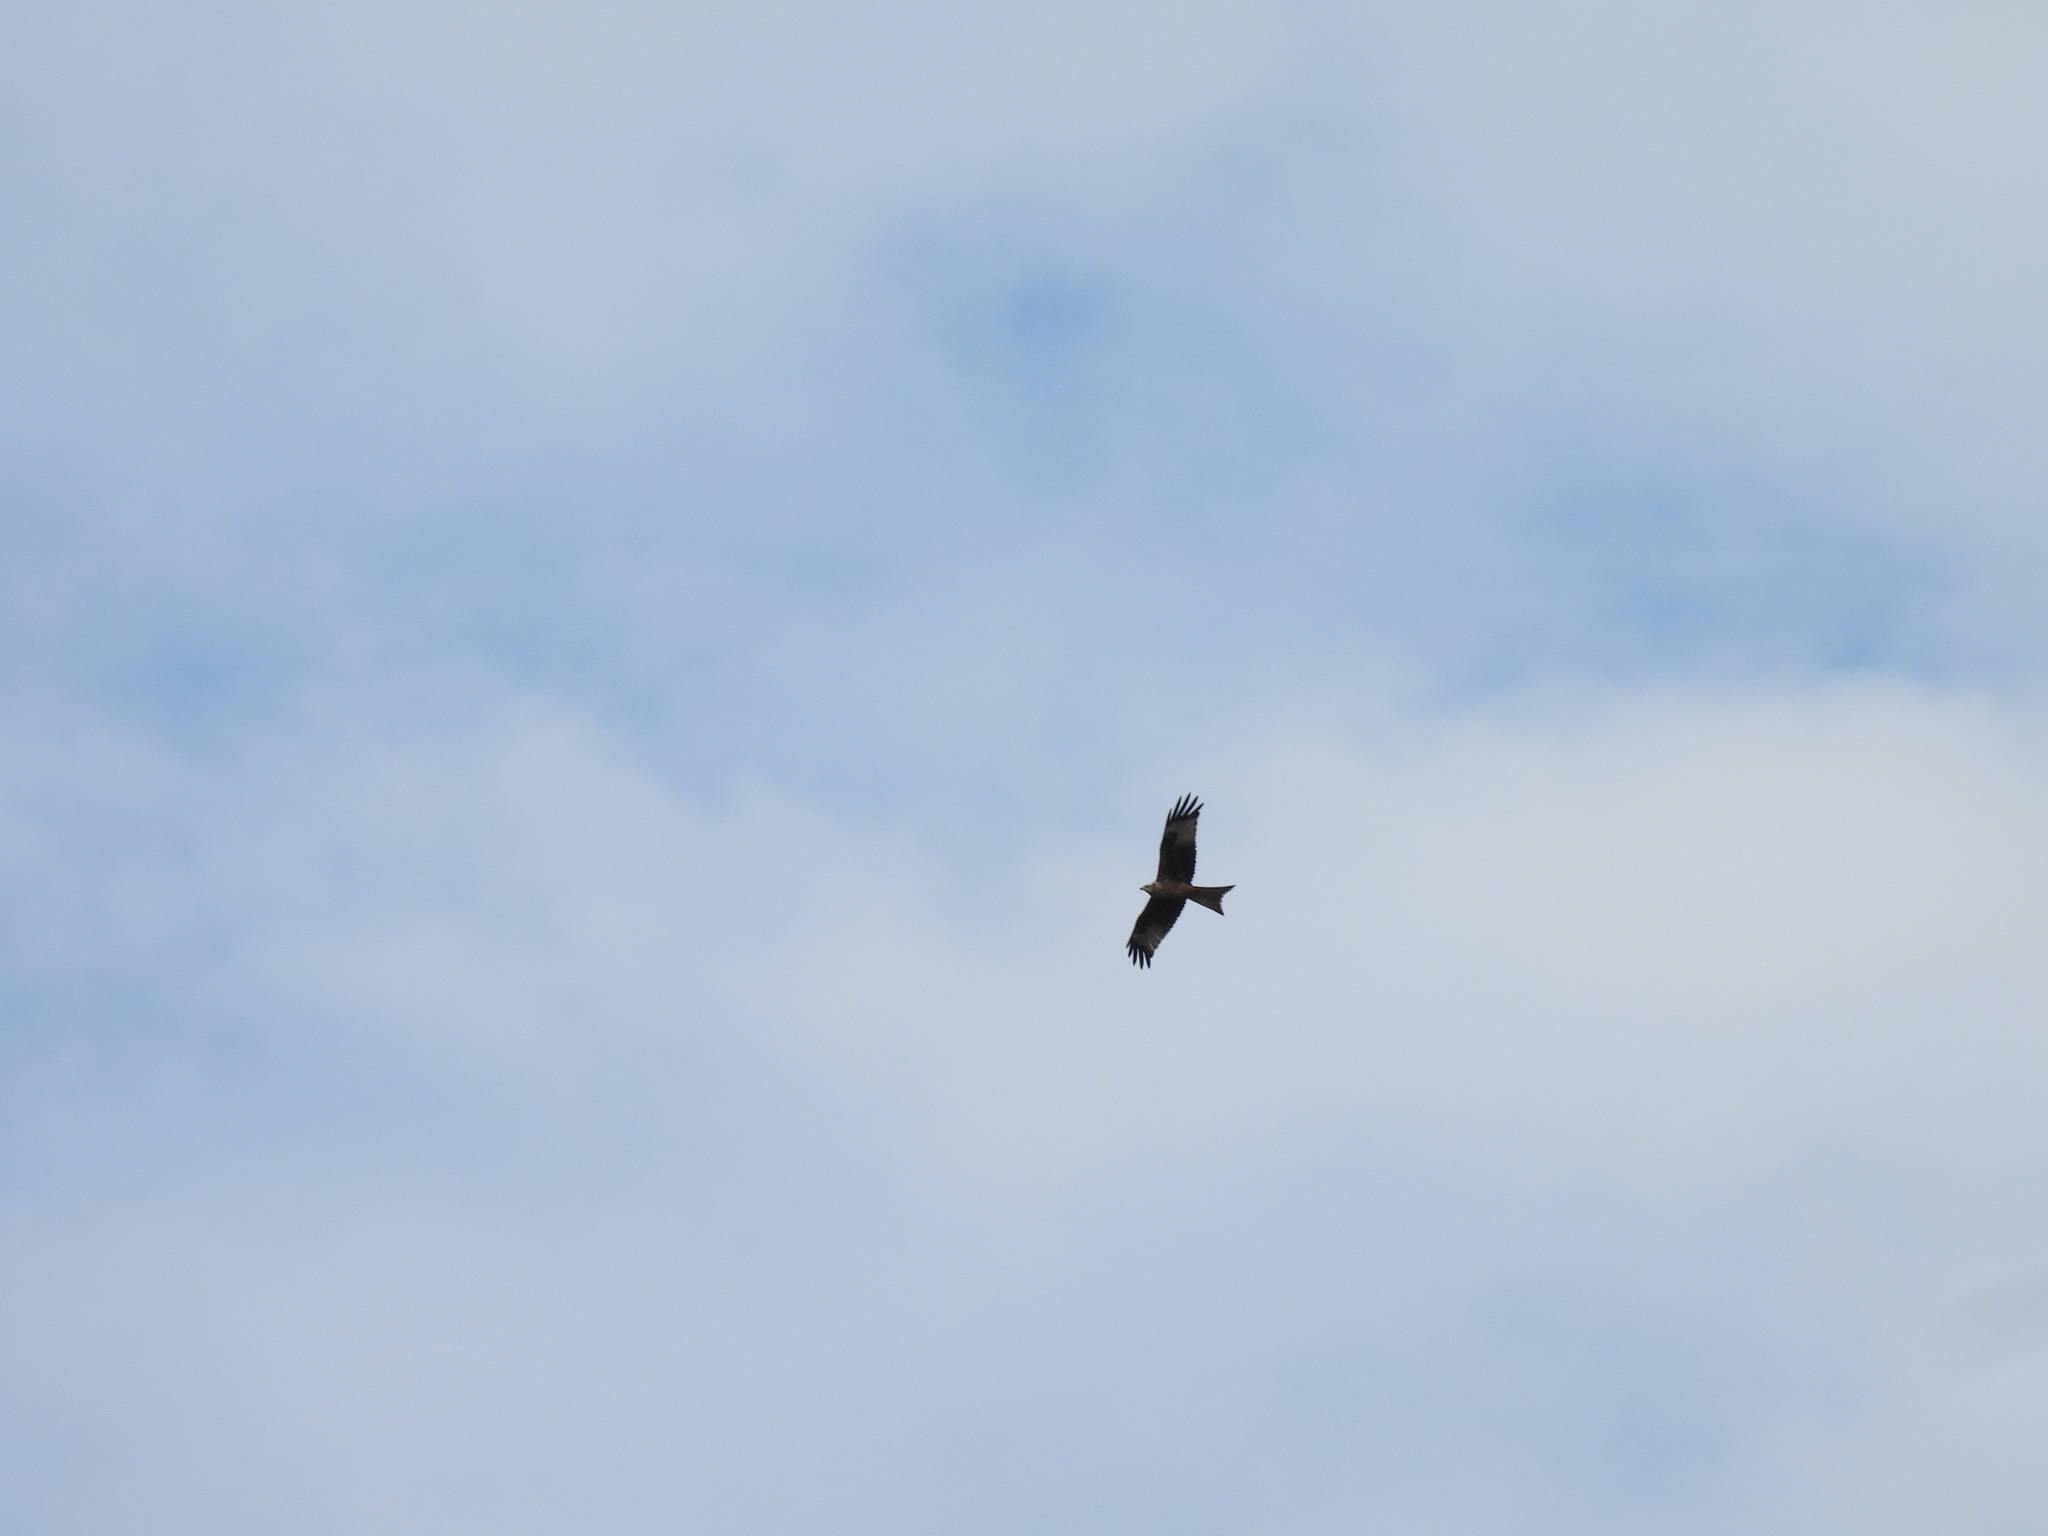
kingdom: Animalia
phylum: Chordata
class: Aves
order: Accipitriformes
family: Accipitridae
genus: Milvus
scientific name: Milvus milvus
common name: Red kite
